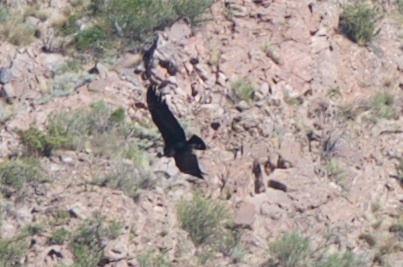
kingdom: Animalia
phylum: Chordata
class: Aves
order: Accipitriformes
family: Cathartidae
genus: Vultur
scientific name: Vultur gryphus
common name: Andean condor
